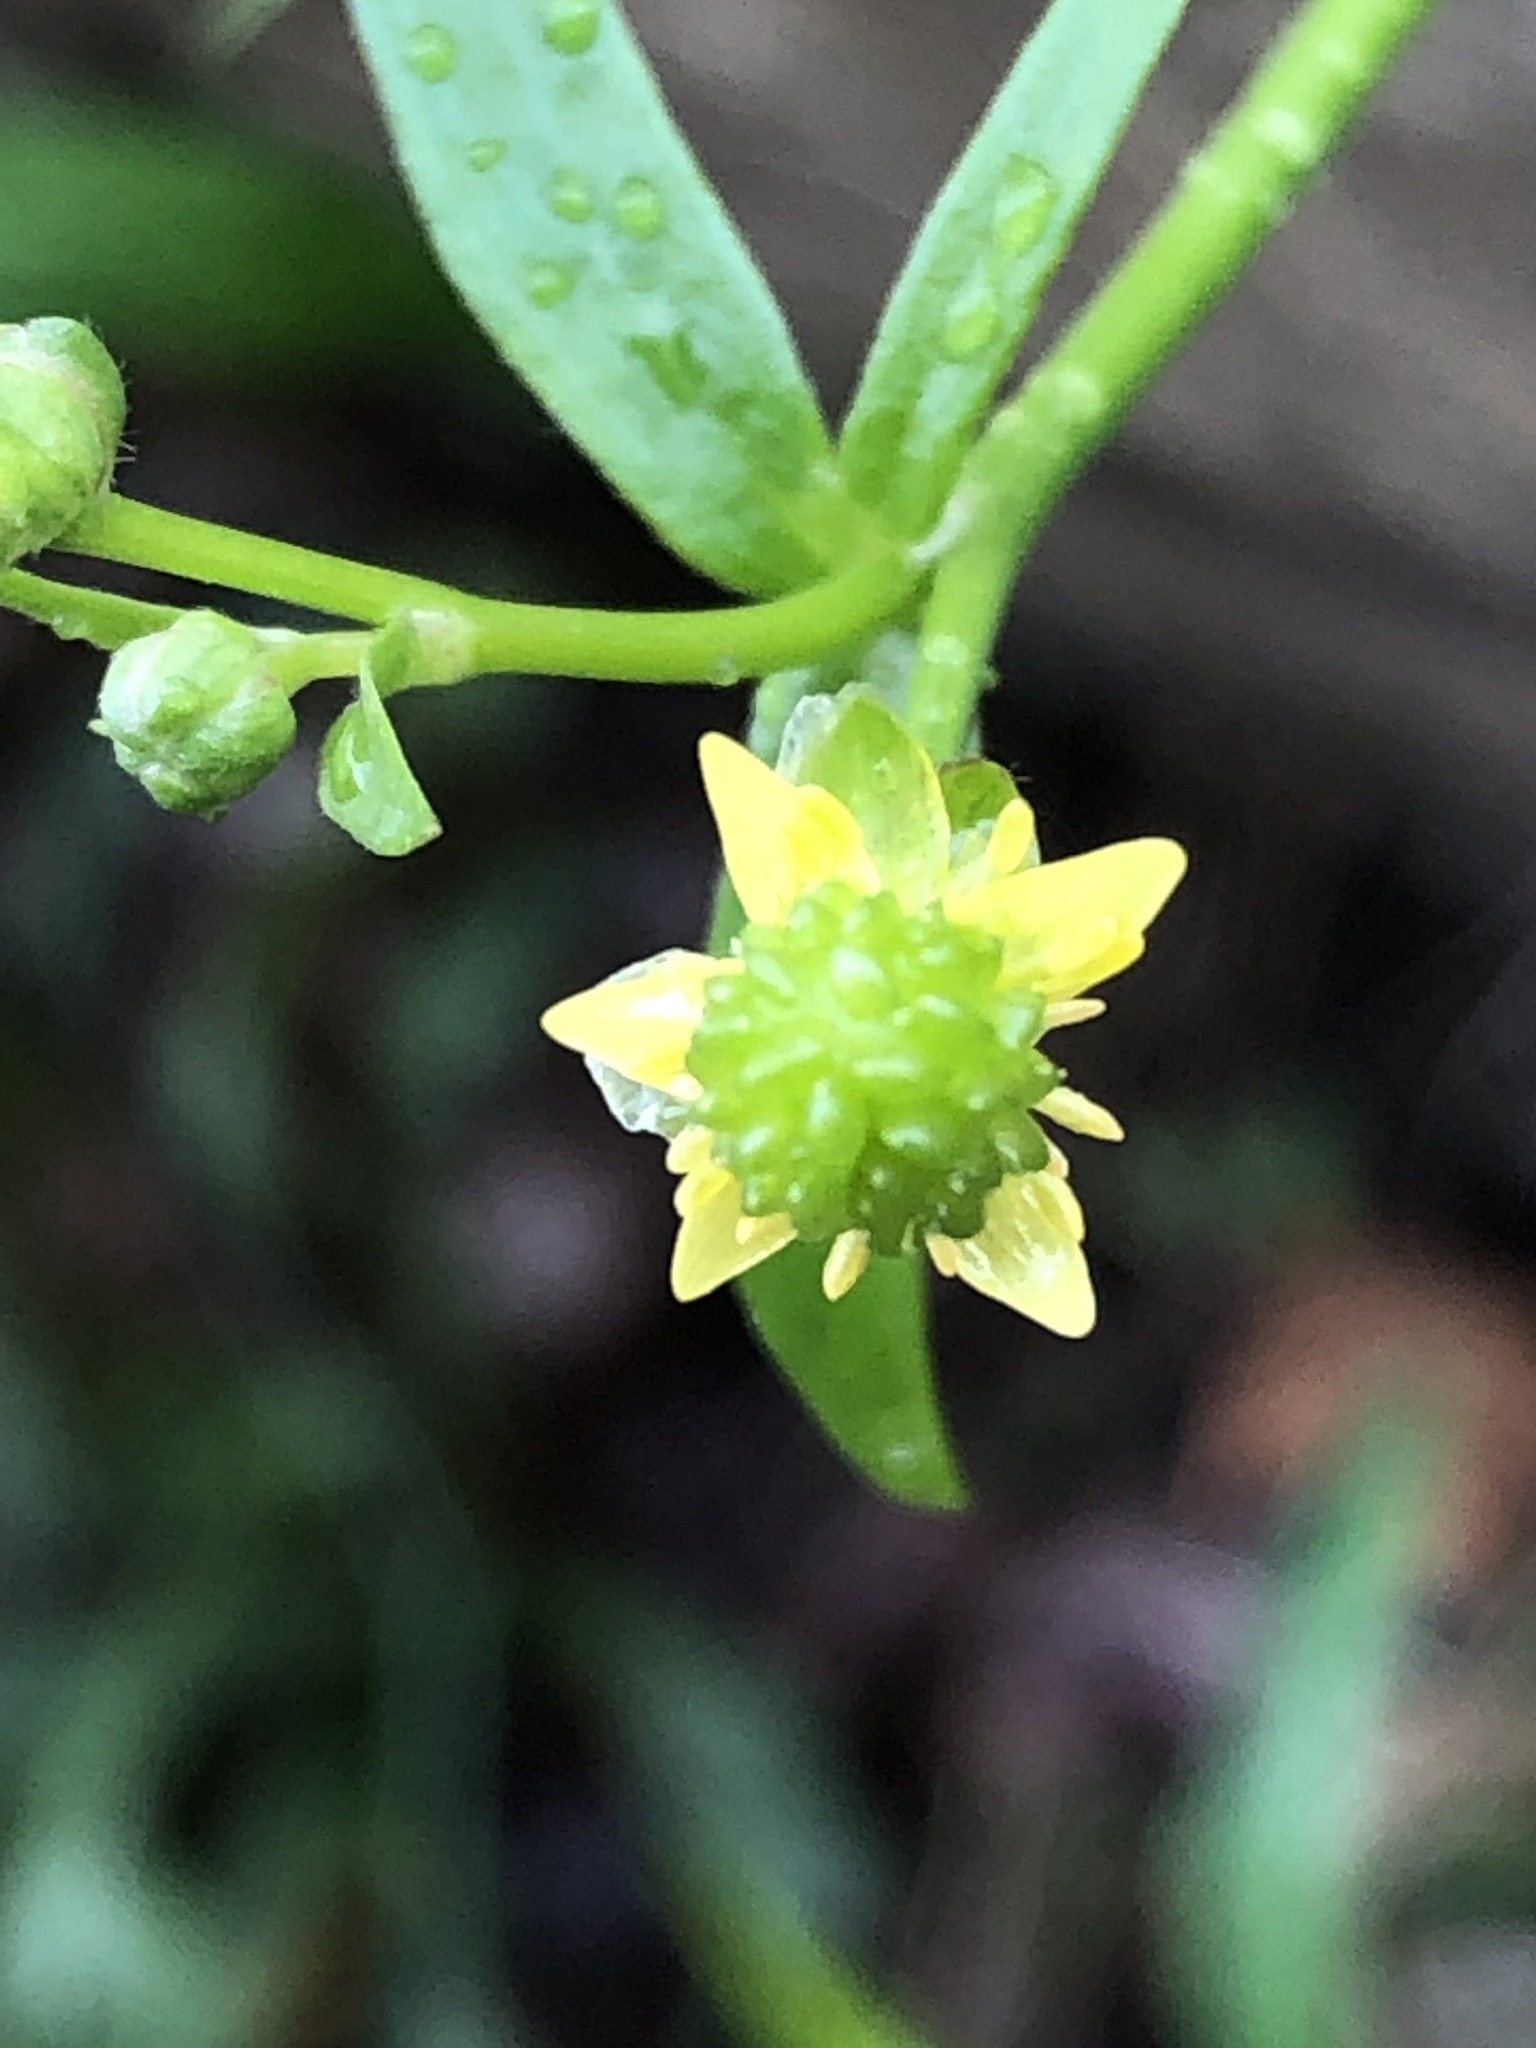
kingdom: Plantae
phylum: Tracheophyta
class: Magnoliopsida
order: Ranunculales
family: Ranunculaceae
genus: Ranunculus
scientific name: Ranunculus abortivus
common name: Early wood buttercup
